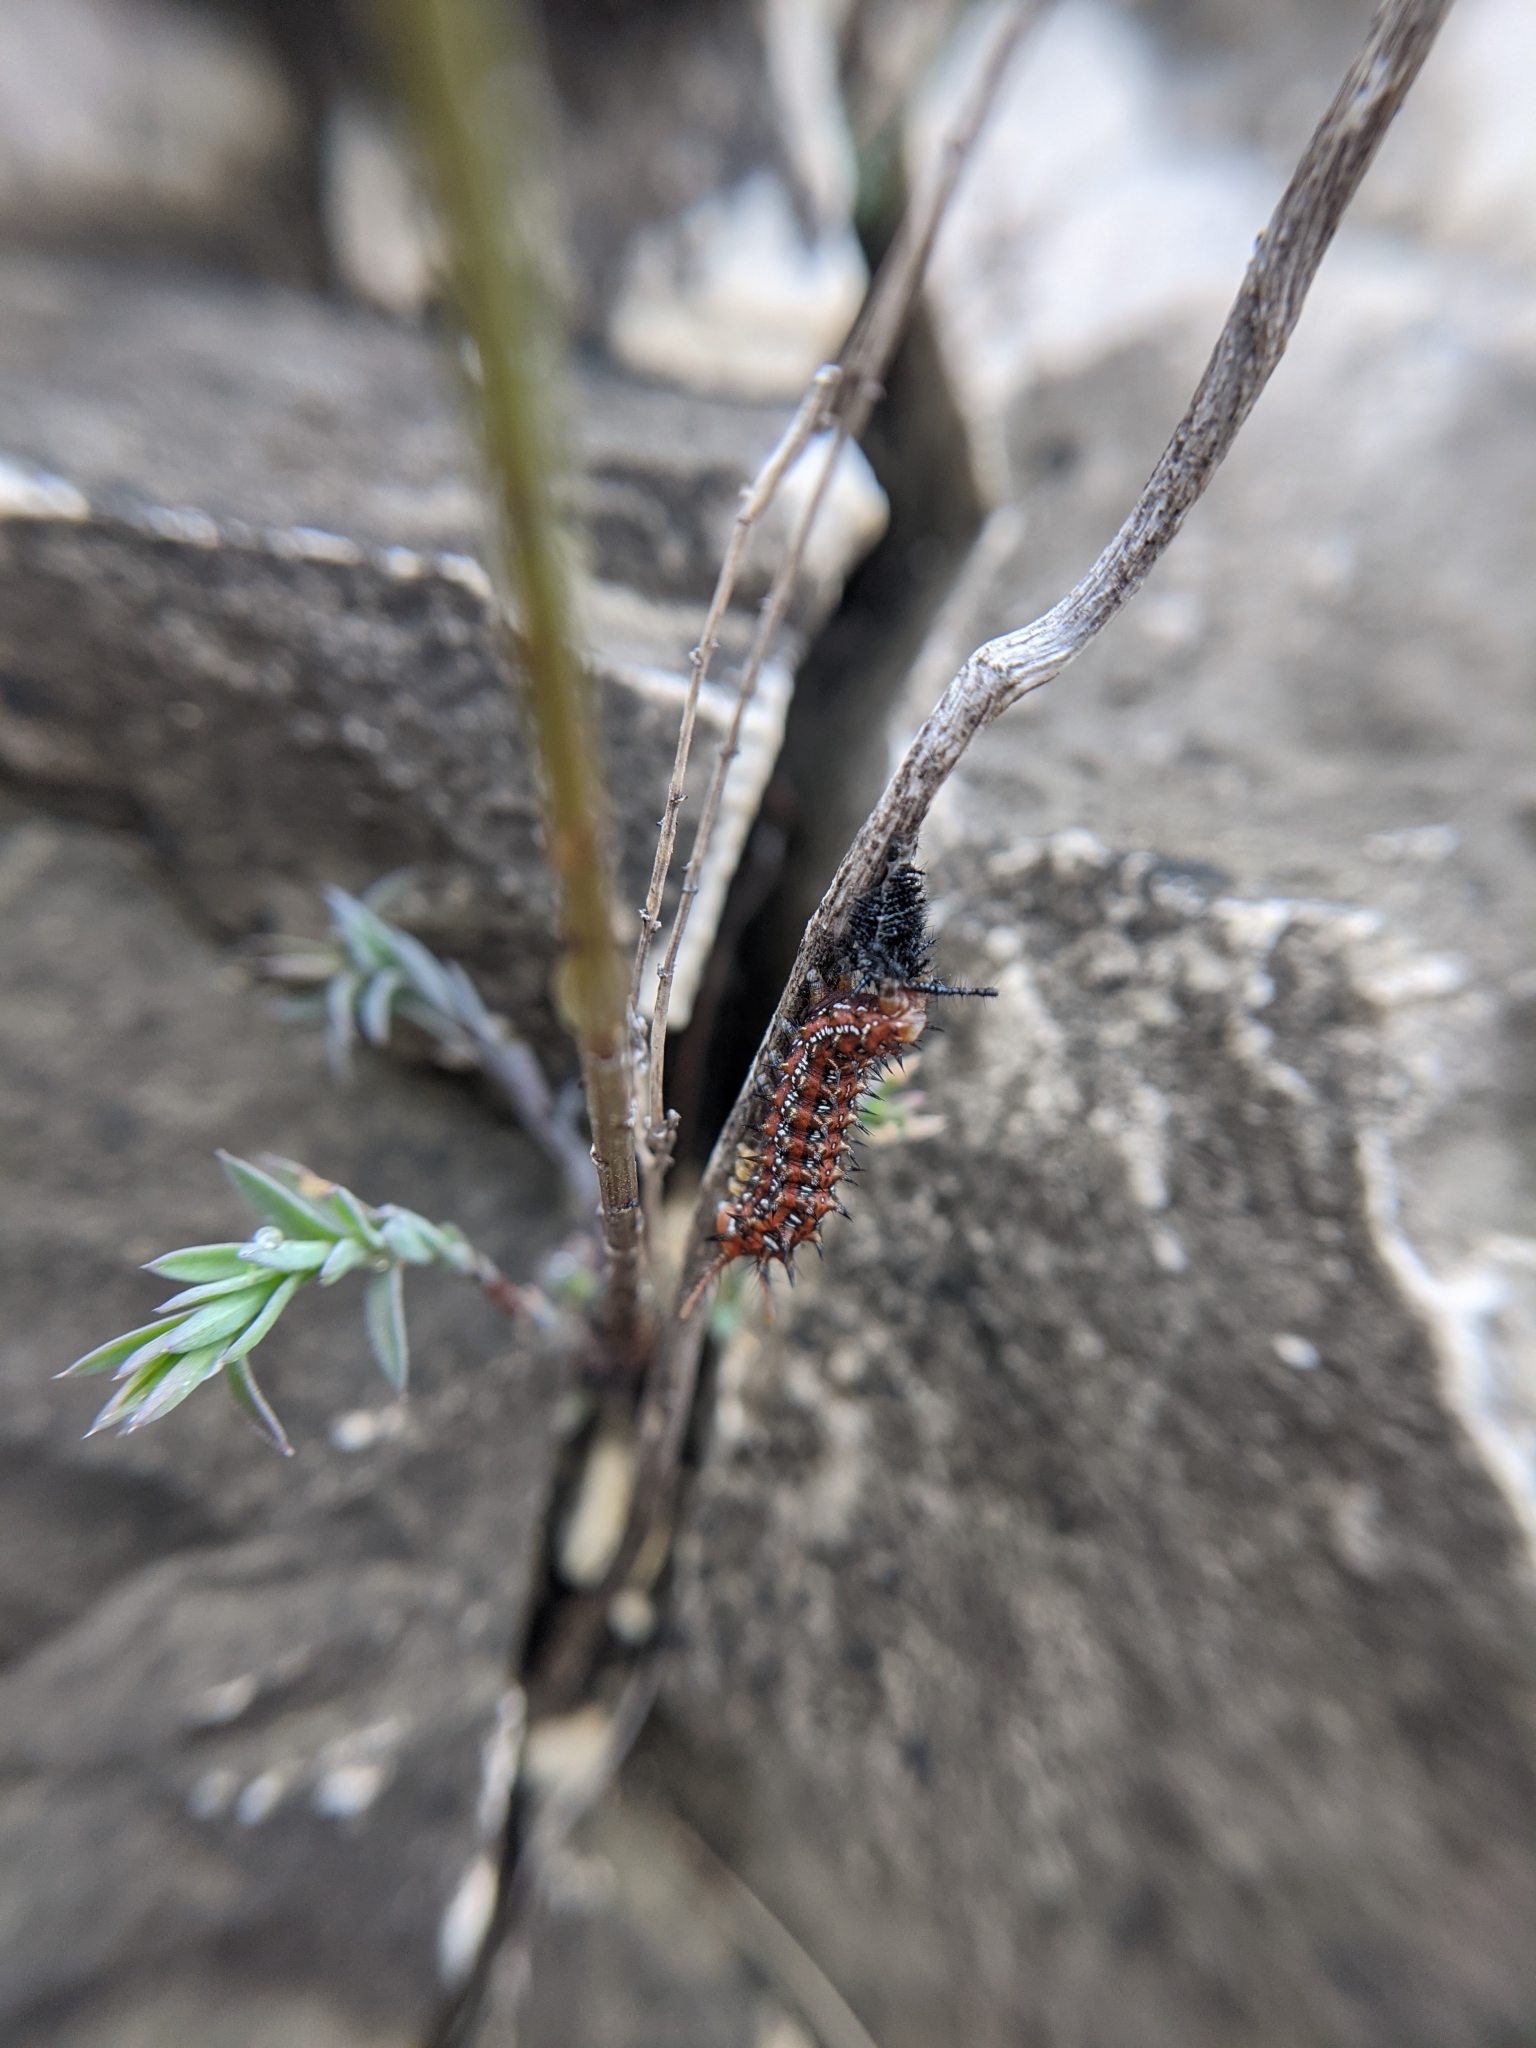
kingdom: Animalia
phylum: Arthropoda
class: Insecta
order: Lepidoptera
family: Nymphalidae
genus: Euptoieta
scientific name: Euptoieta claudia
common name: Variegated fritillary
